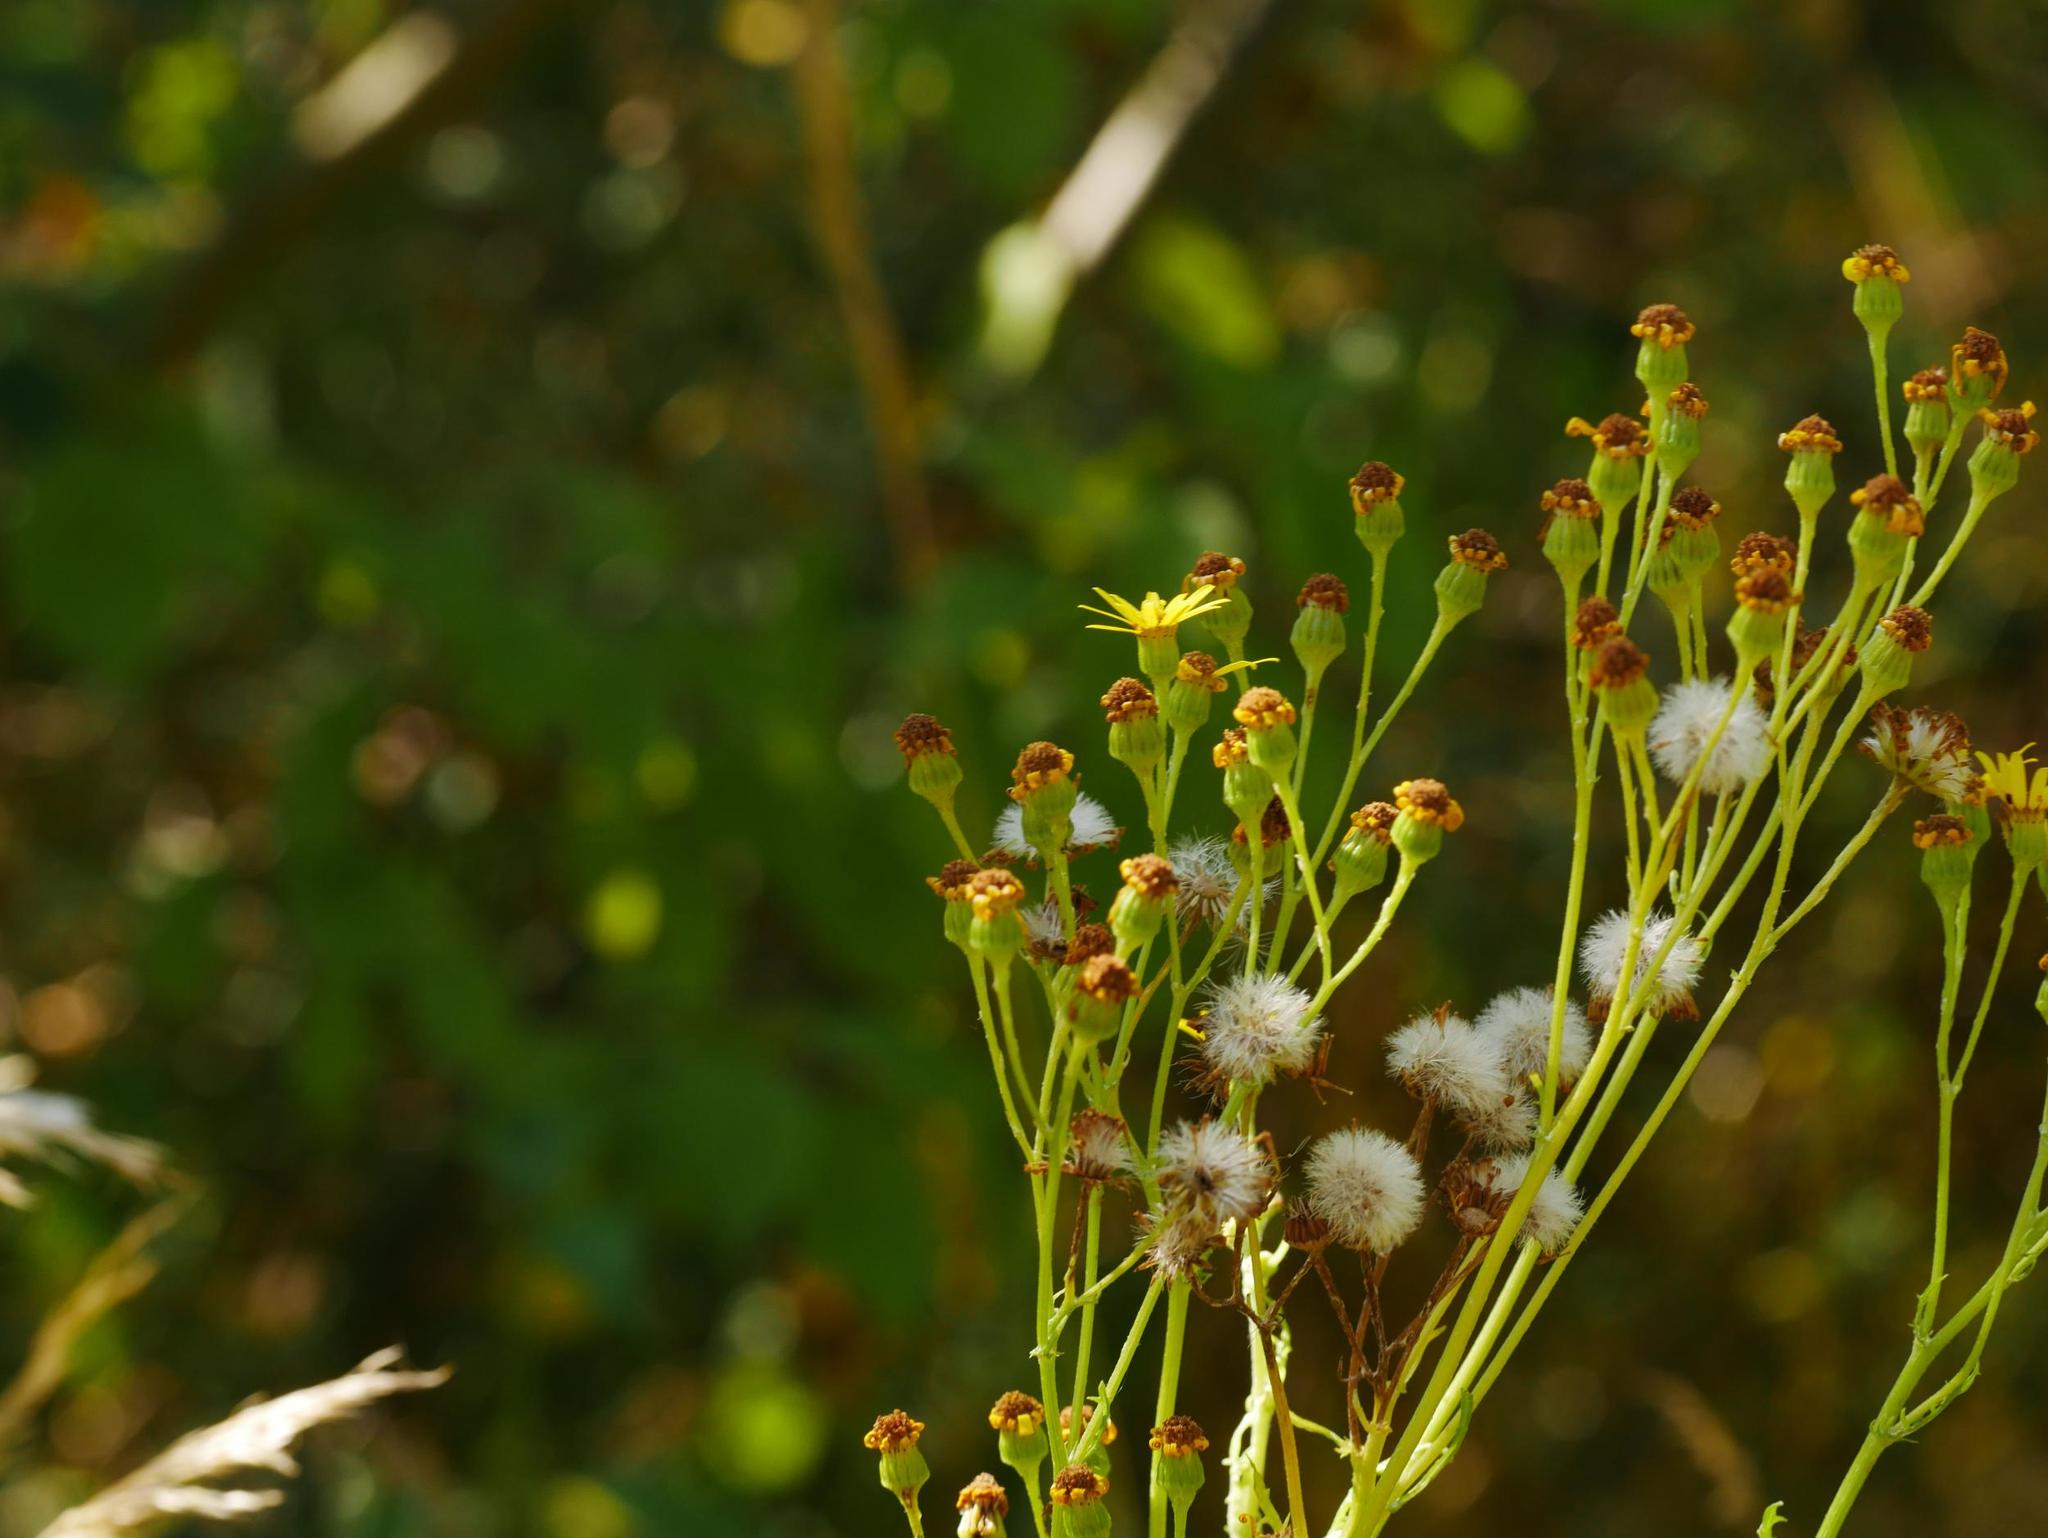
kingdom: Plantae
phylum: Tracheophyta
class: Magnoliopsida
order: Asterales
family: Asteraceae
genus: Jacobaea
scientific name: Jacobaea vulgaris
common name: Stinking willie
